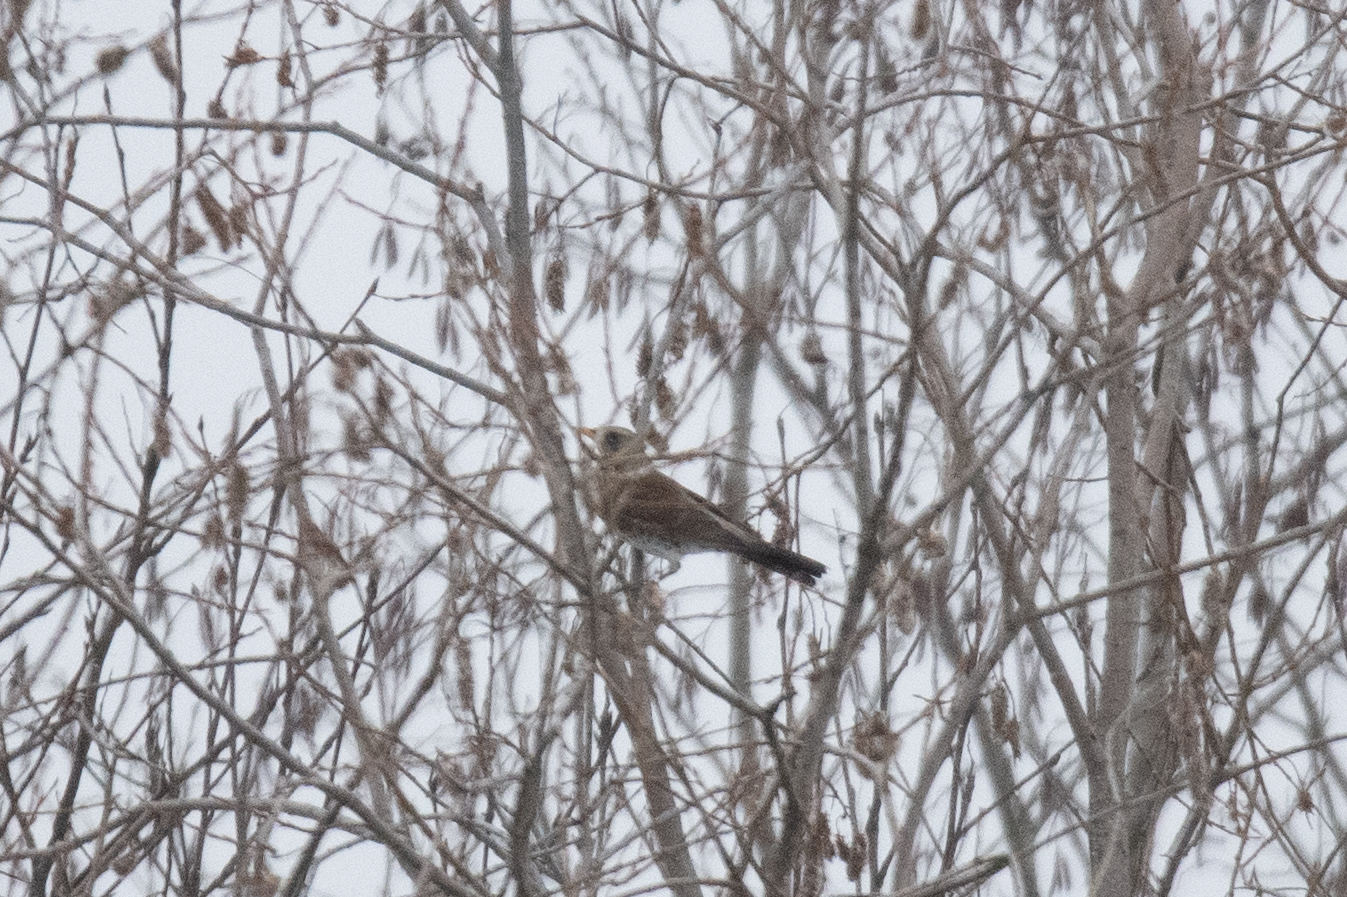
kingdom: Animalia
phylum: Chordata
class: Aves
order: Passeriformes
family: Turdidae
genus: Turdus
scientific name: Turdus pilaris
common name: Fieldfare
